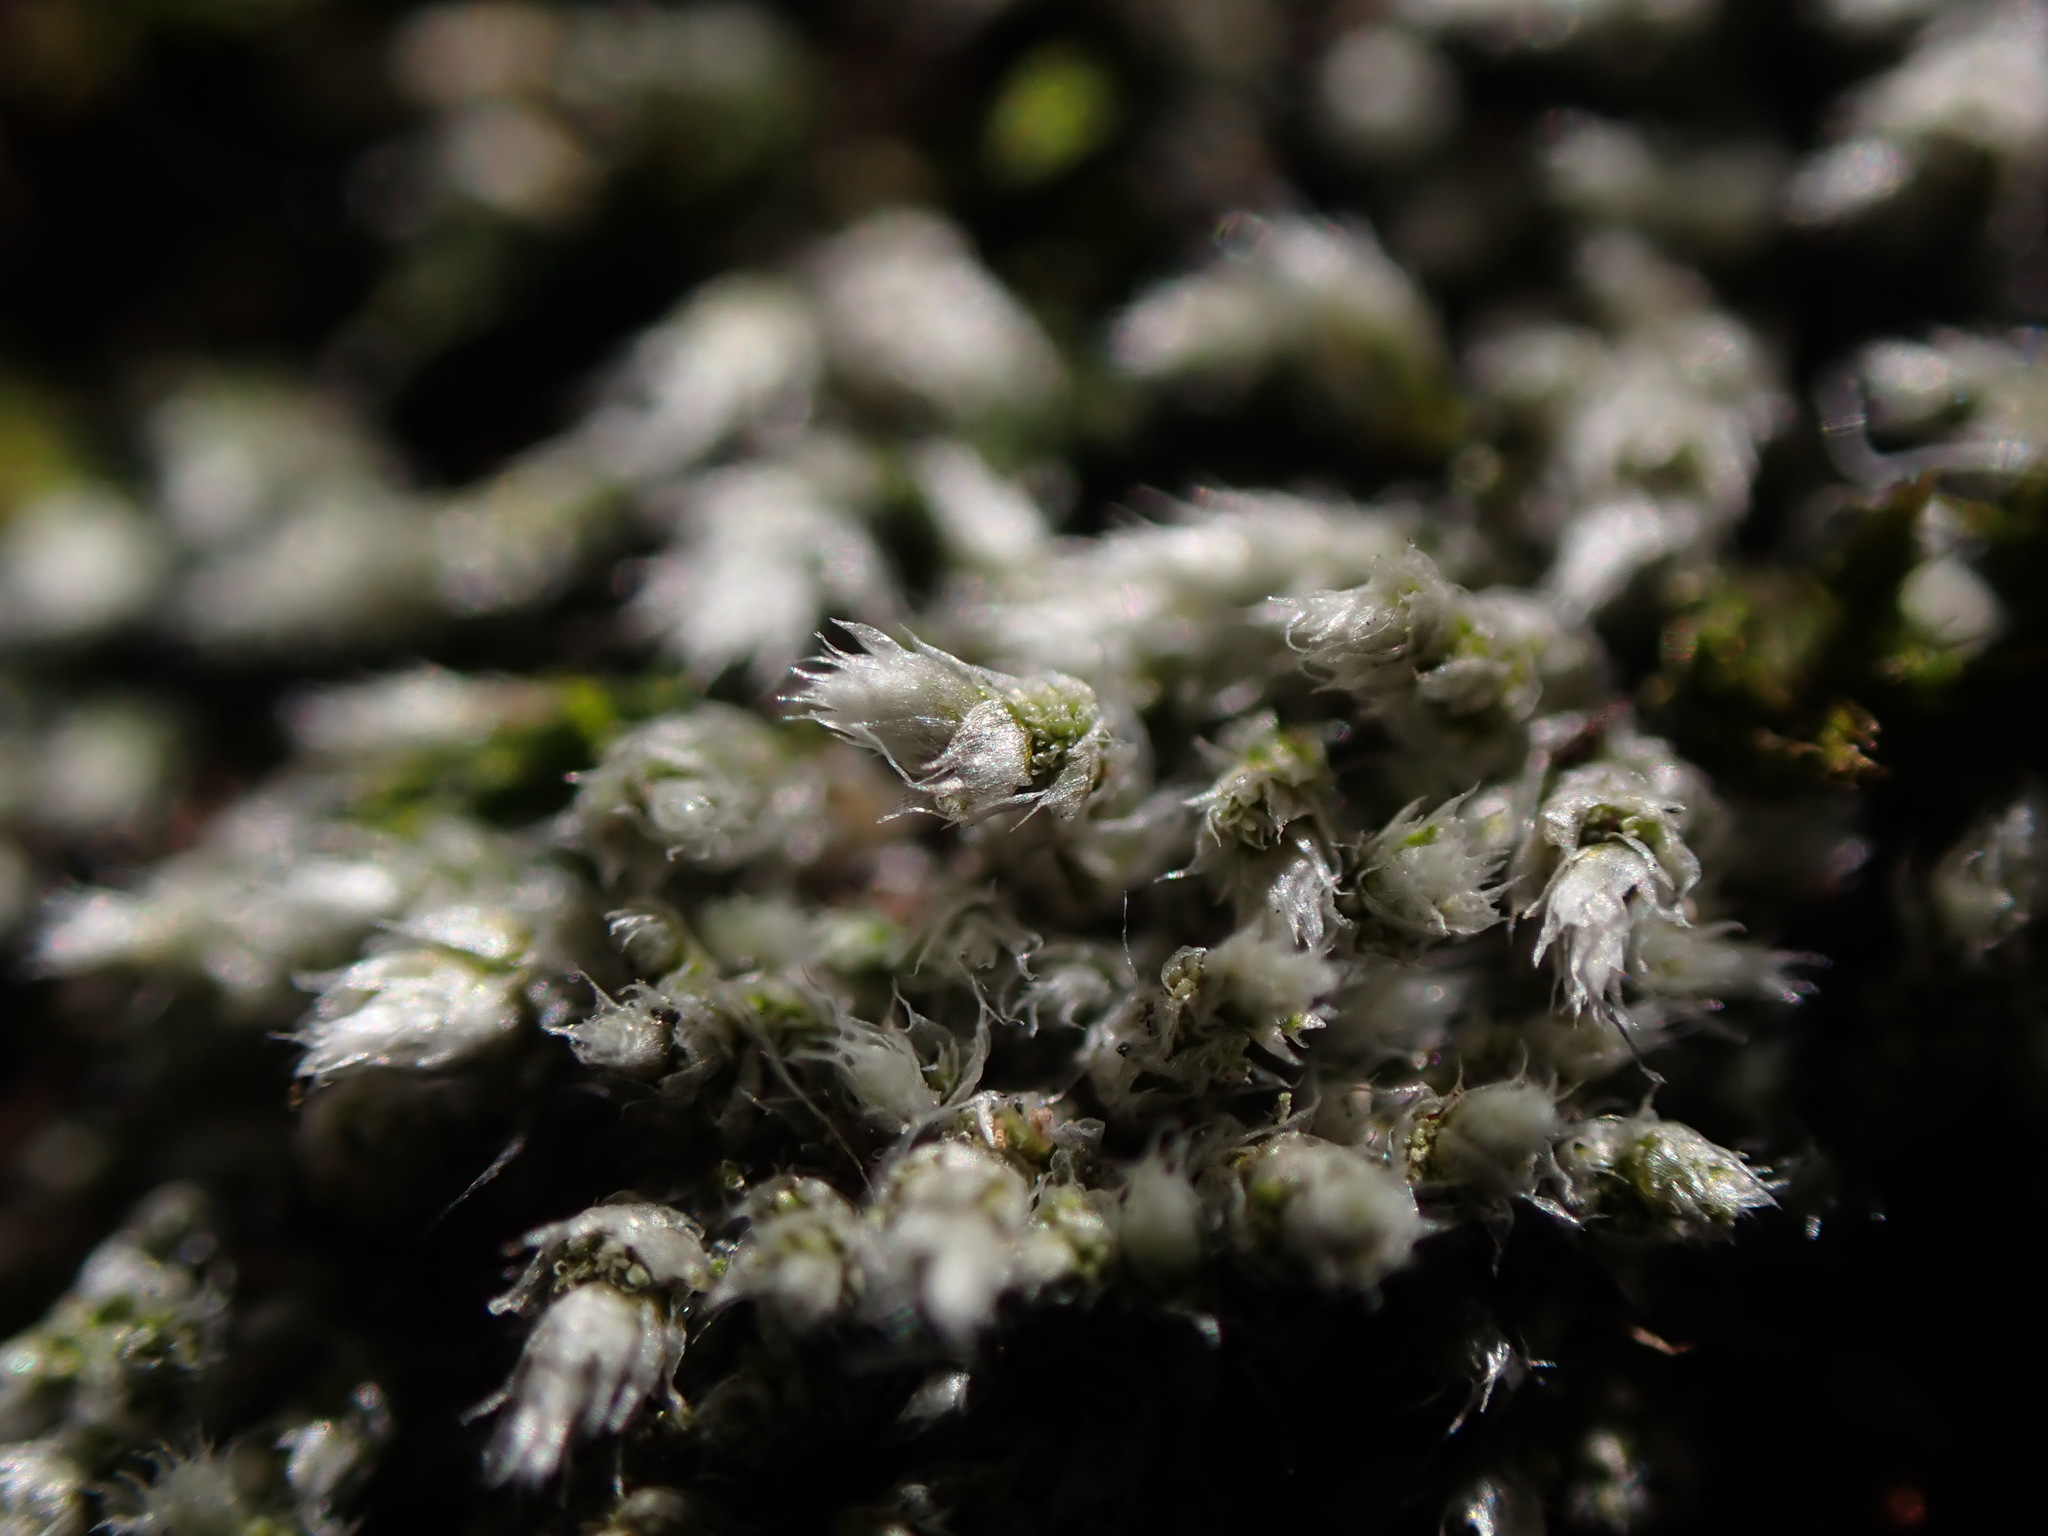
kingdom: Plantae
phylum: Bryophyta
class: Bryopsida
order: Bryales
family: Bryaceae
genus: Bryum
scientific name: Bryum argenteum
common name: Silver-moss
